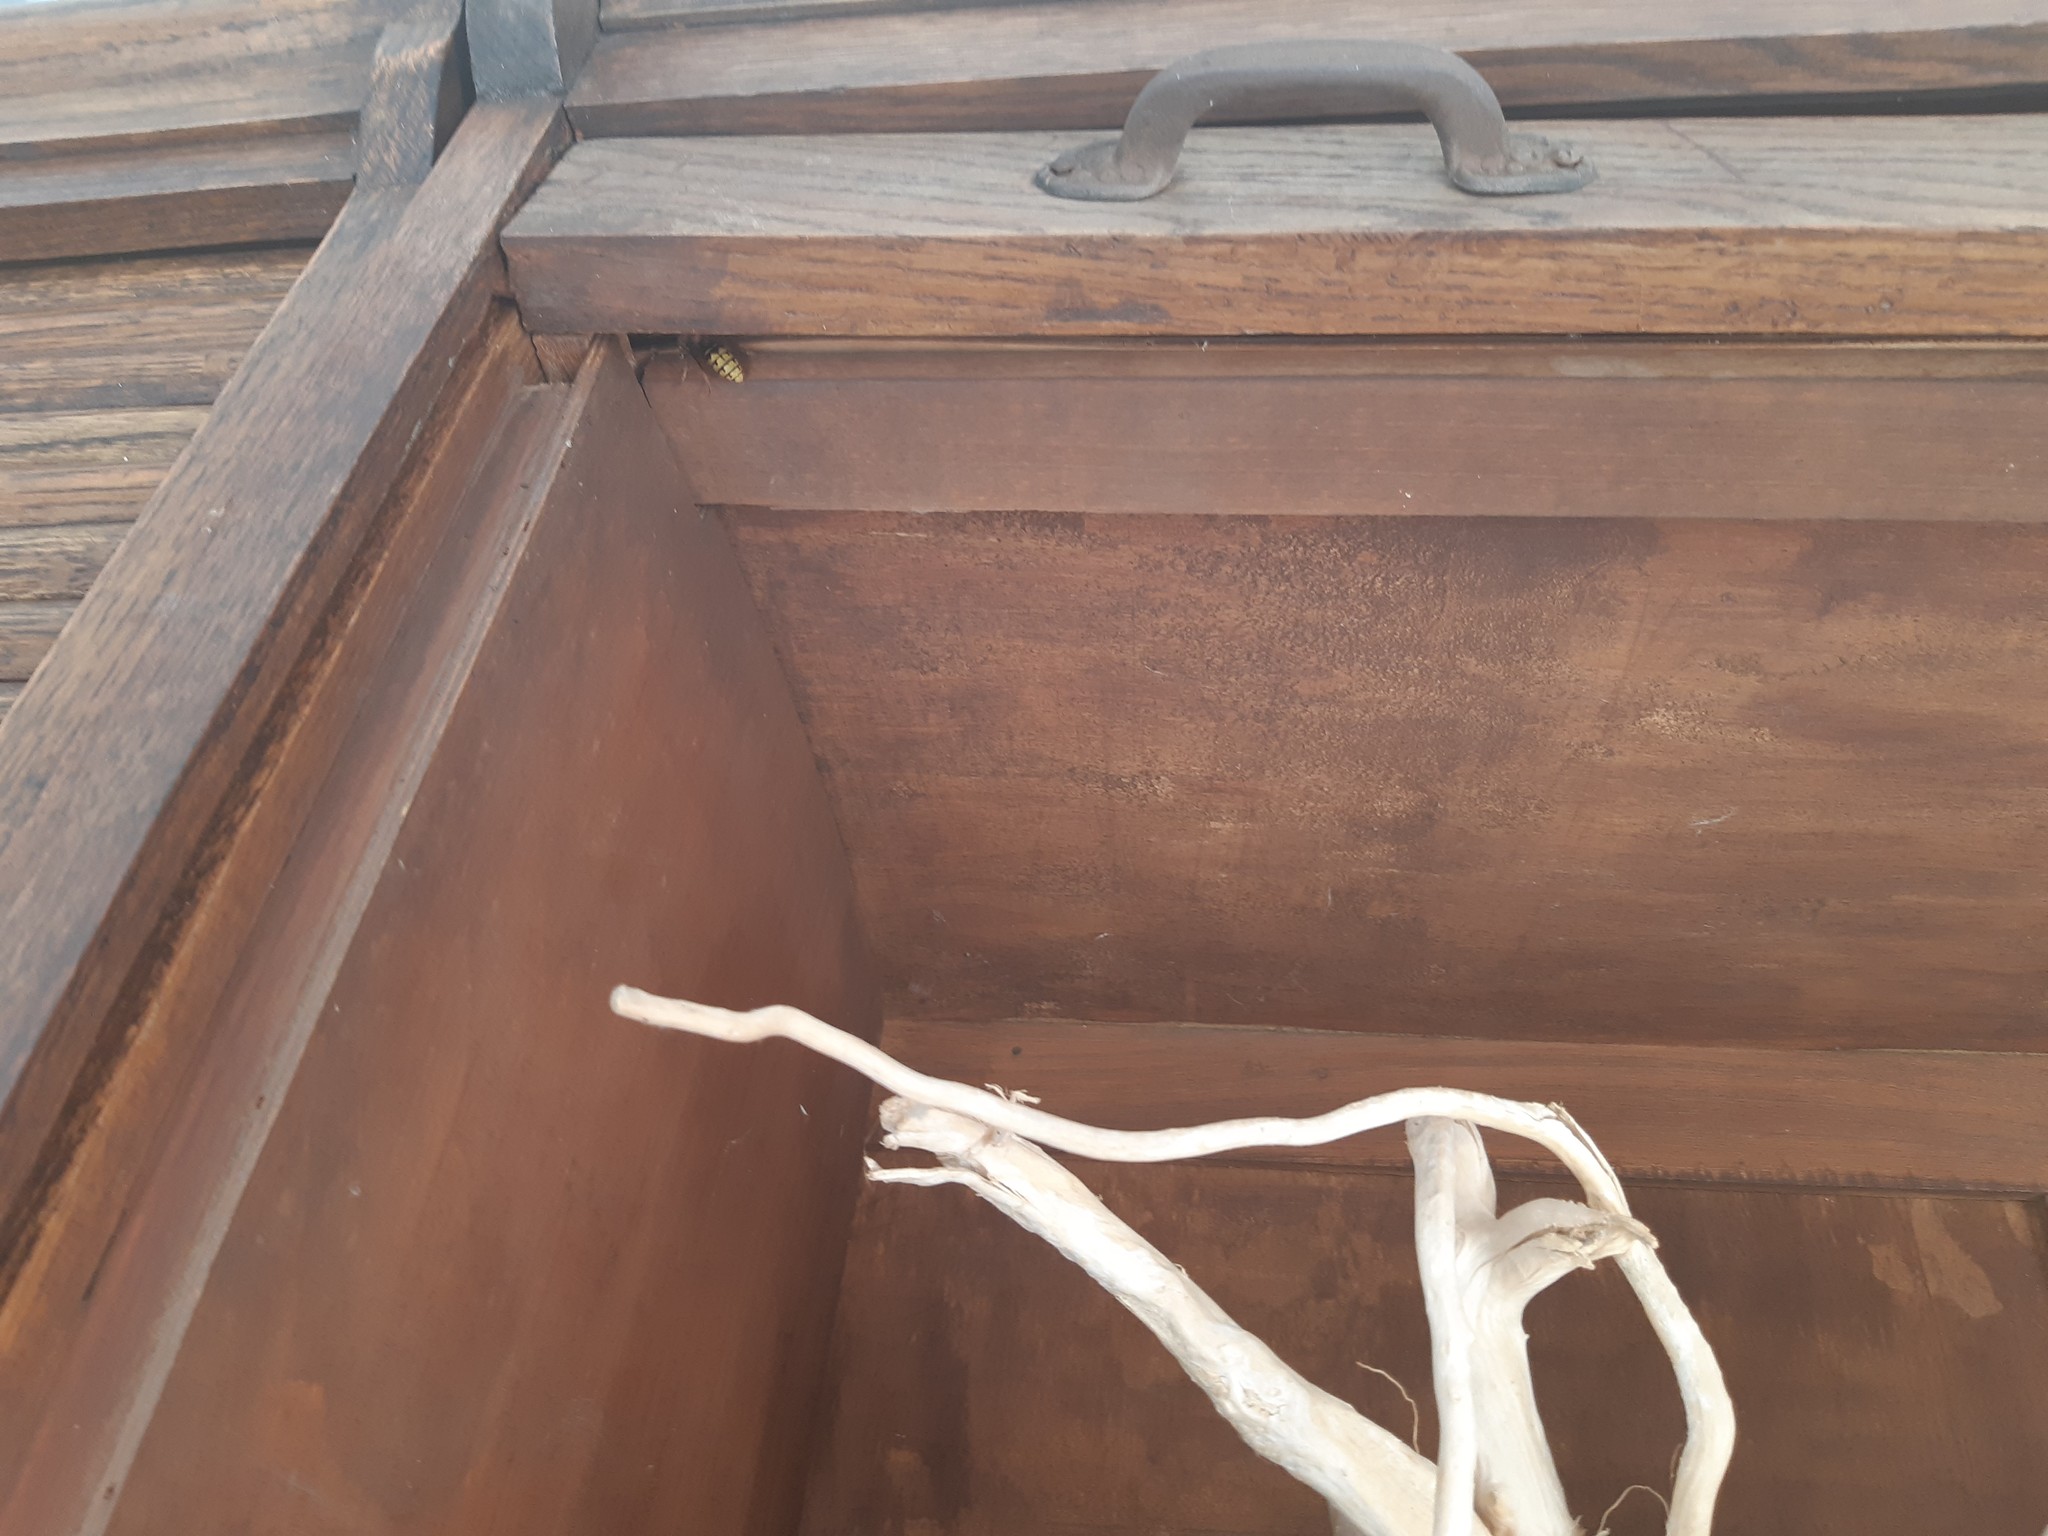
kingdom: Animalia
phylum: Arthropoda
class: Insecta
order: Hymenoptera
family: Vespidae
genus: Vespa
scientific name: Vespa crabro
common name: Hornet
